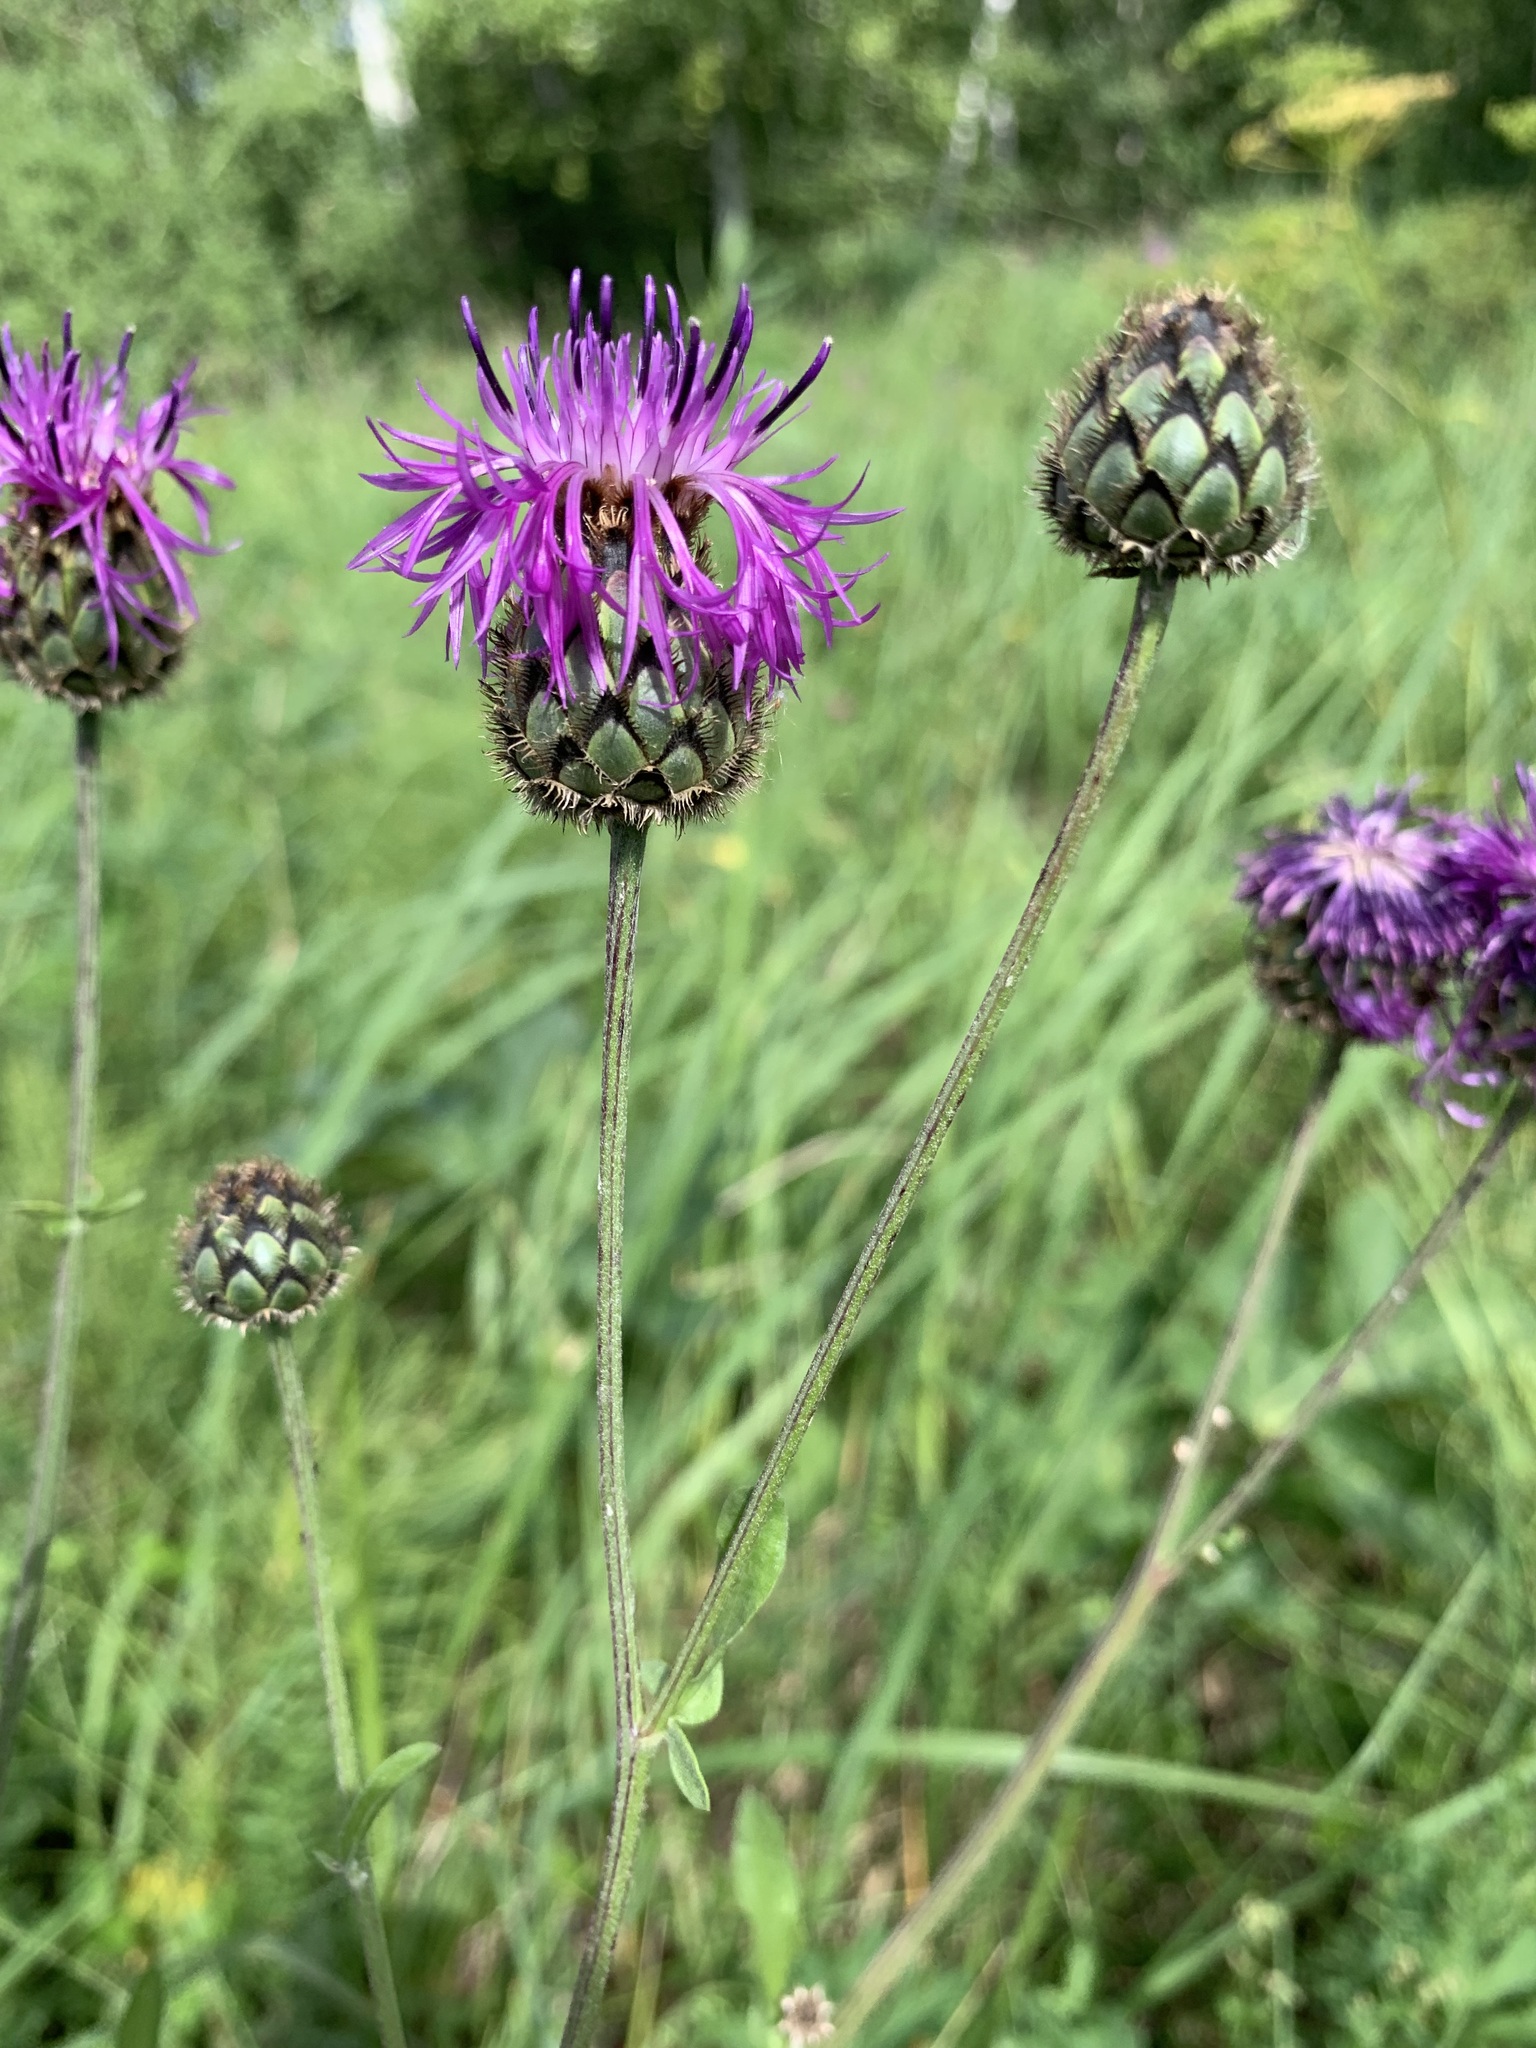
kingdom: Plantae
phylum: Tracheophyta
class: Magnoliopsida
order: Asterales
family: Asteraceae
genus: Centaurea
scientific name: Centaurea scabiosa
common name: Greater knapweed
